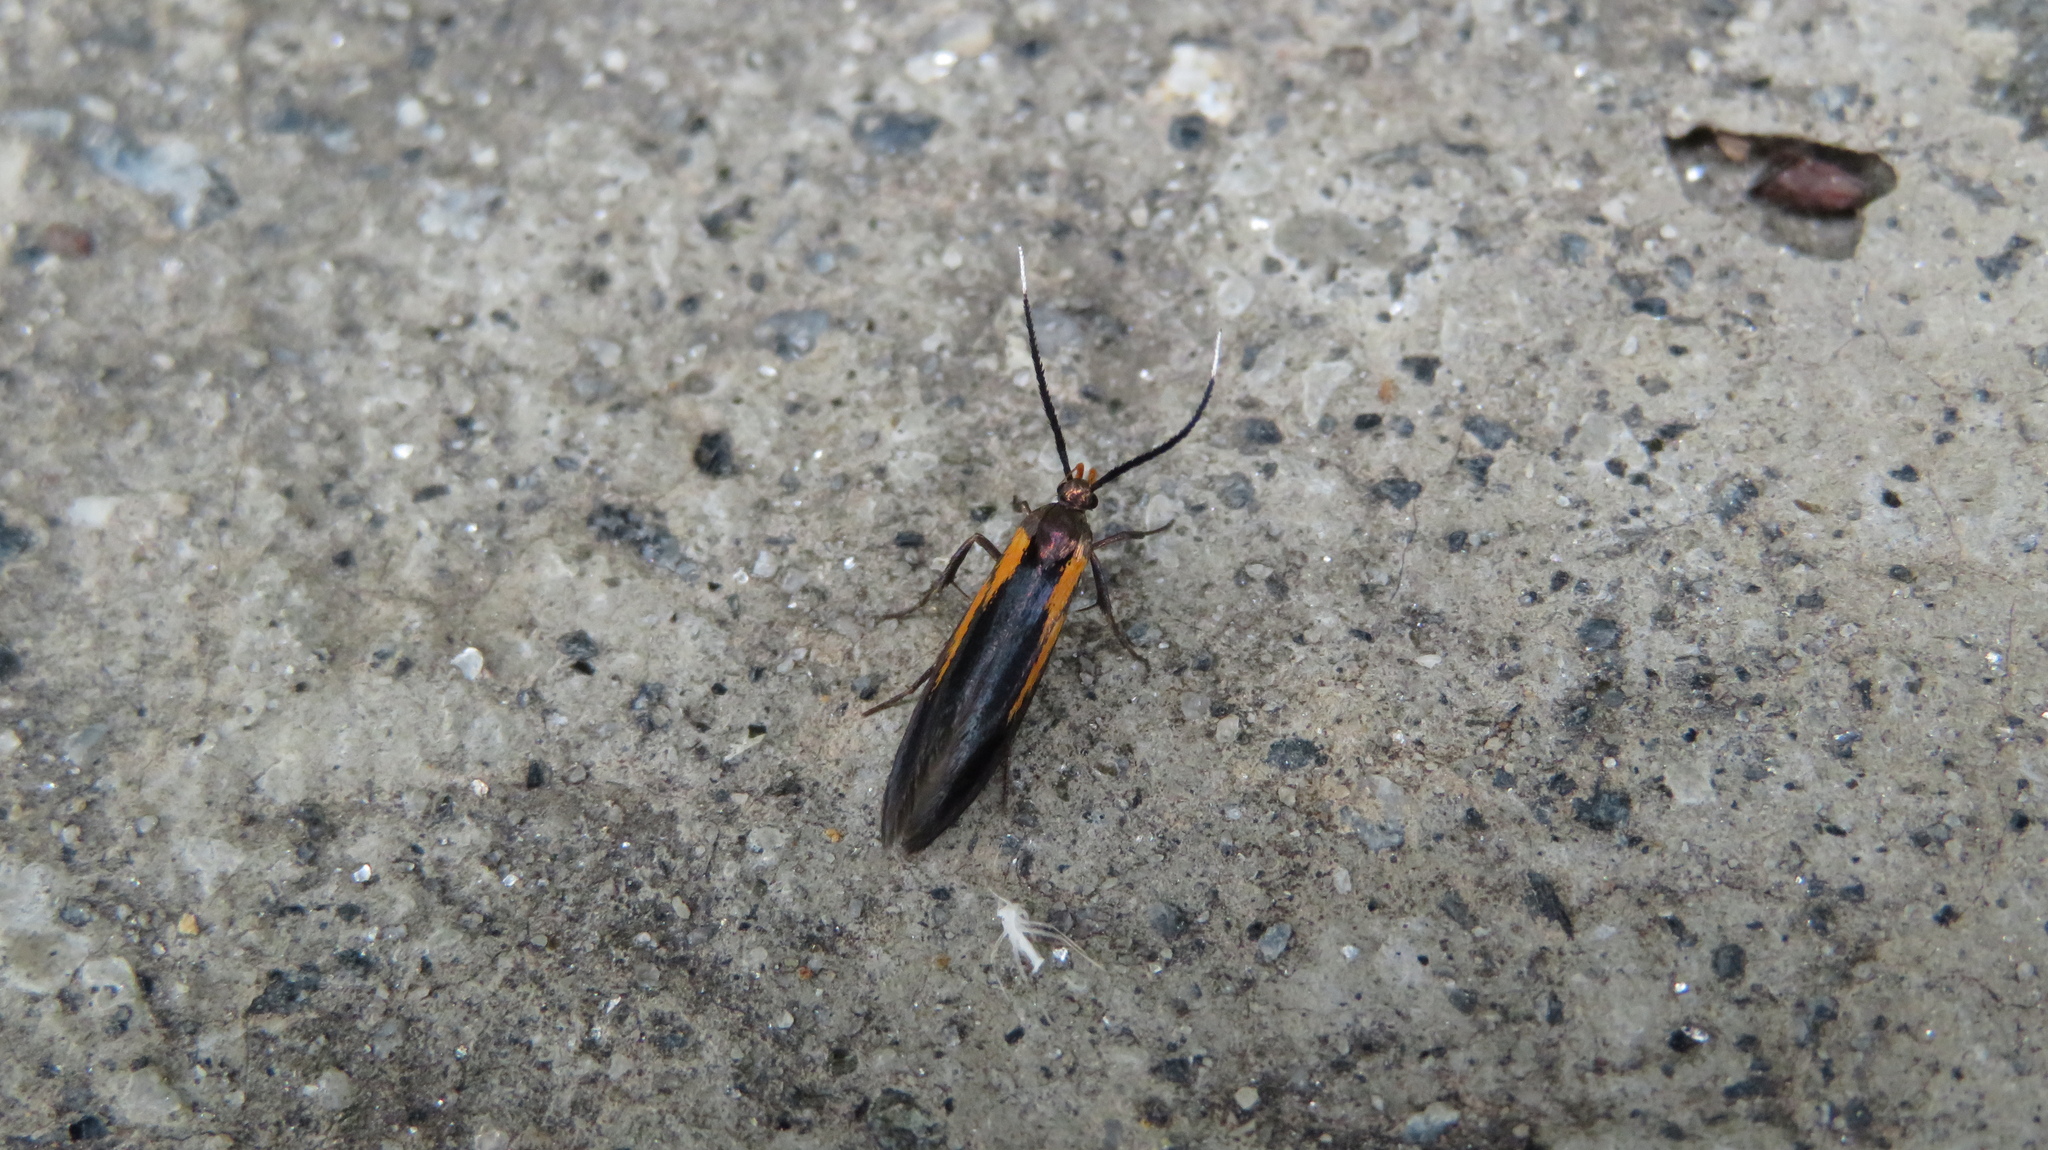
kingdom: Animalia
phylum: Arthropoda
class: Insecta
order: Lepidoptera
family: Oecophoridae
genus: Mathildana
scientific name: Mathildana newmanella
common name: Newman's mathildana moth
